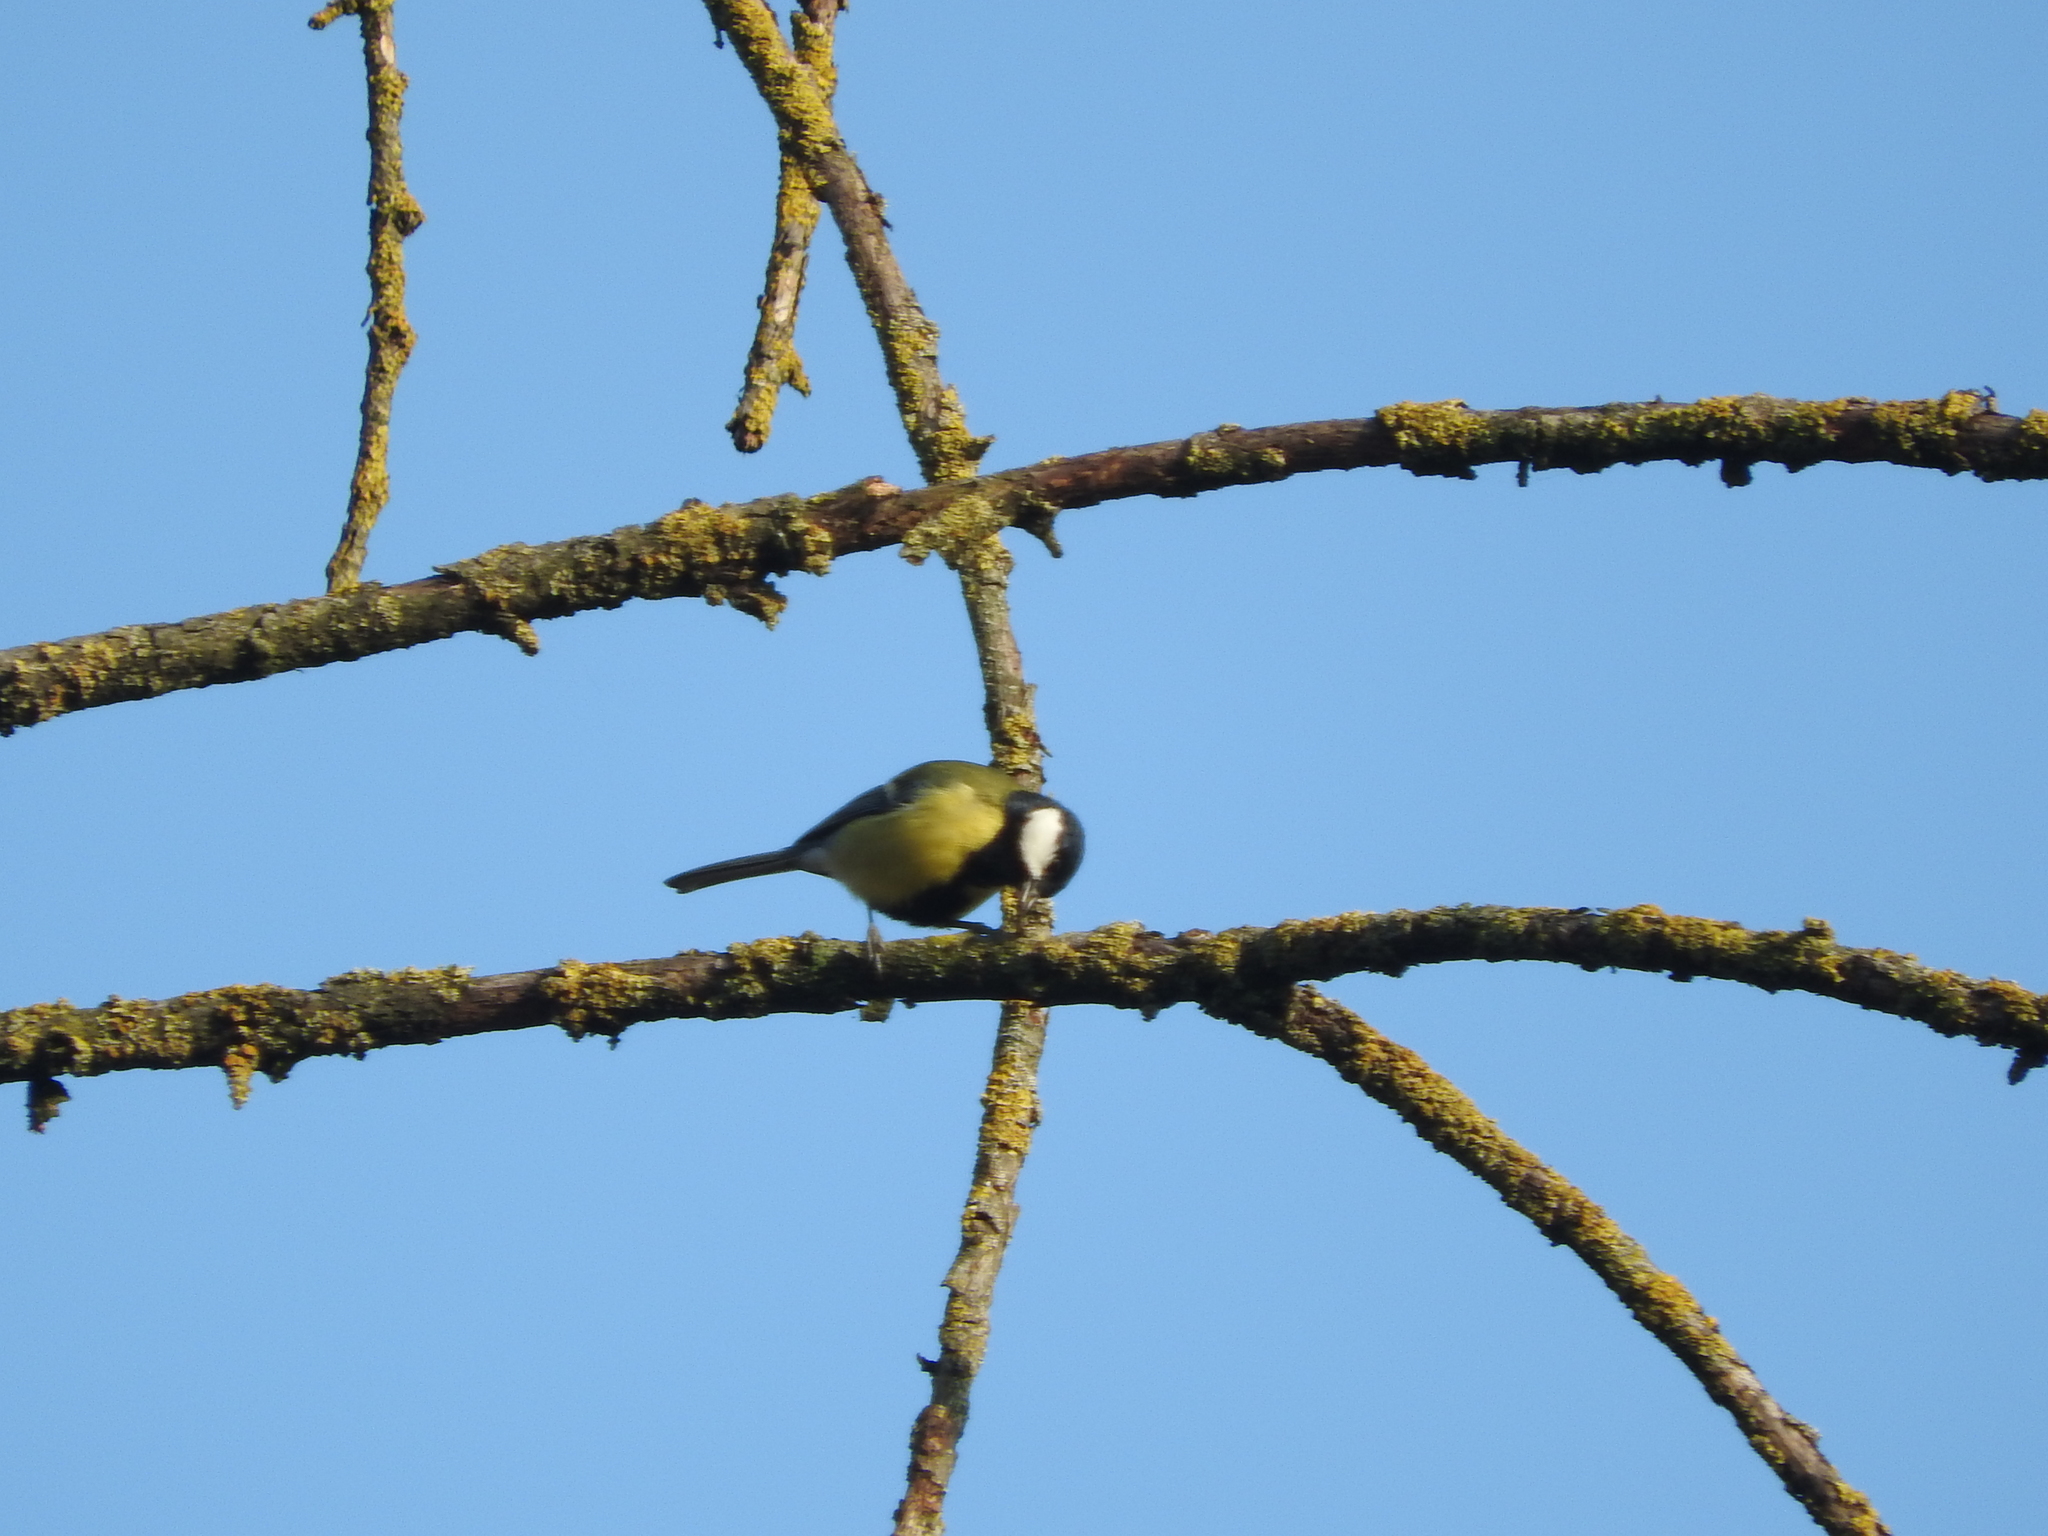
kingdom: Animalia
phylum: Chordata
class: Aves
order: Passeriformes
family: Paridae
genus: Parus
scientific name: Parus major
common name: Great tit
